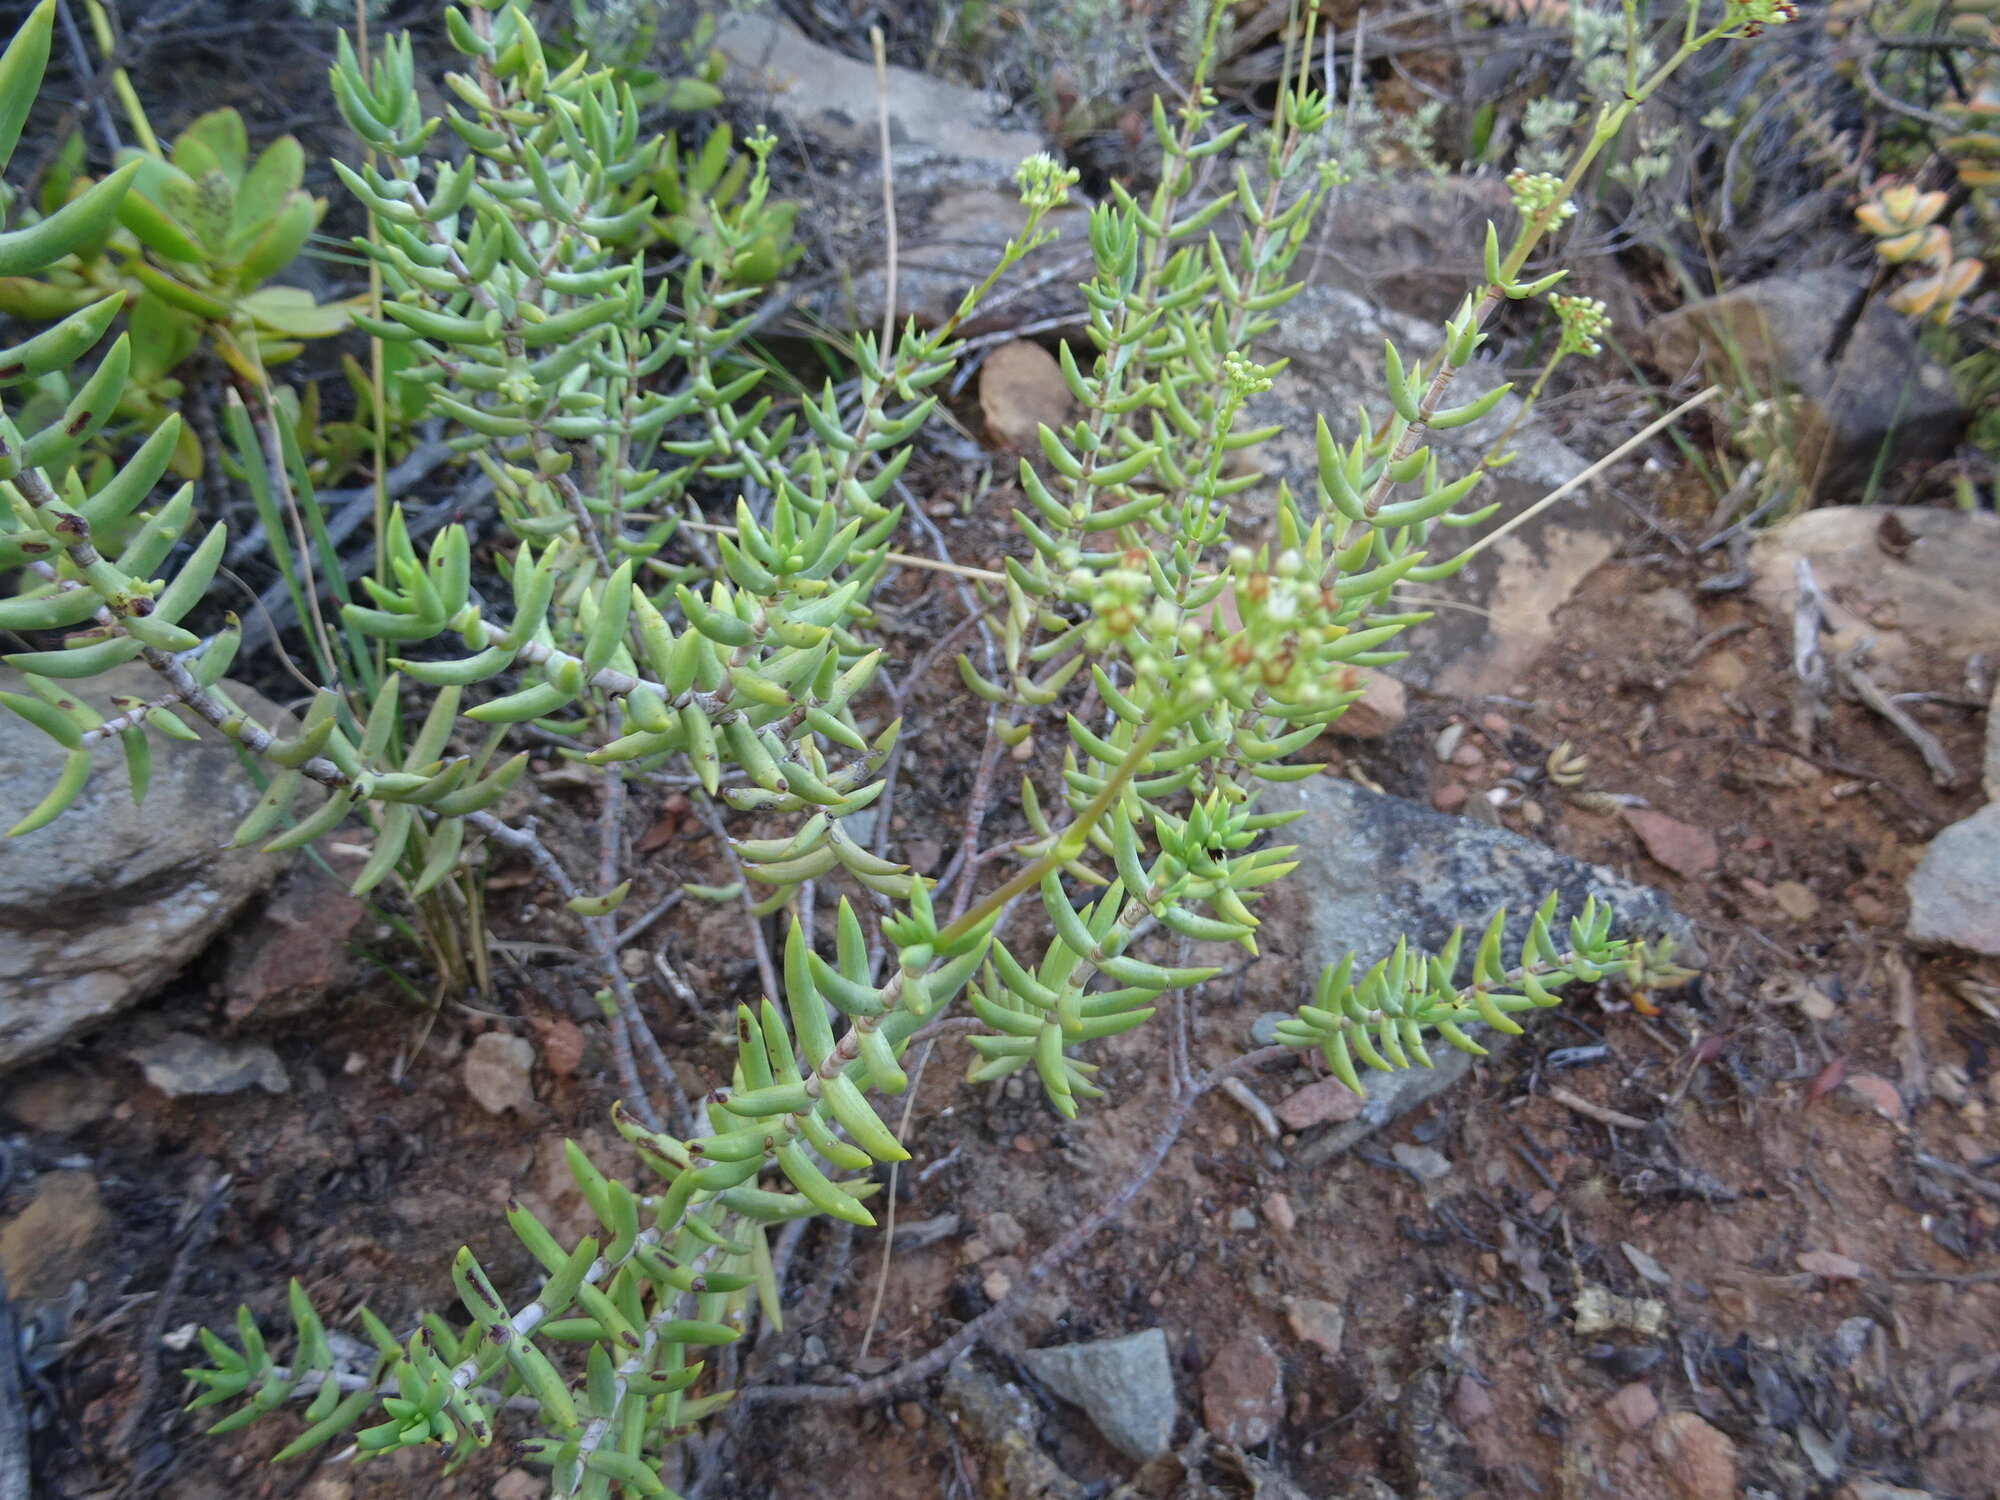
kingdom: Plantae
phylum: Tracheophyta
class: Magnoliopsida
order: Saxifragales
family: Crassulaceae
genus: Crassula
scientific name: Crassula tetragona
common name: Pygmyweed
